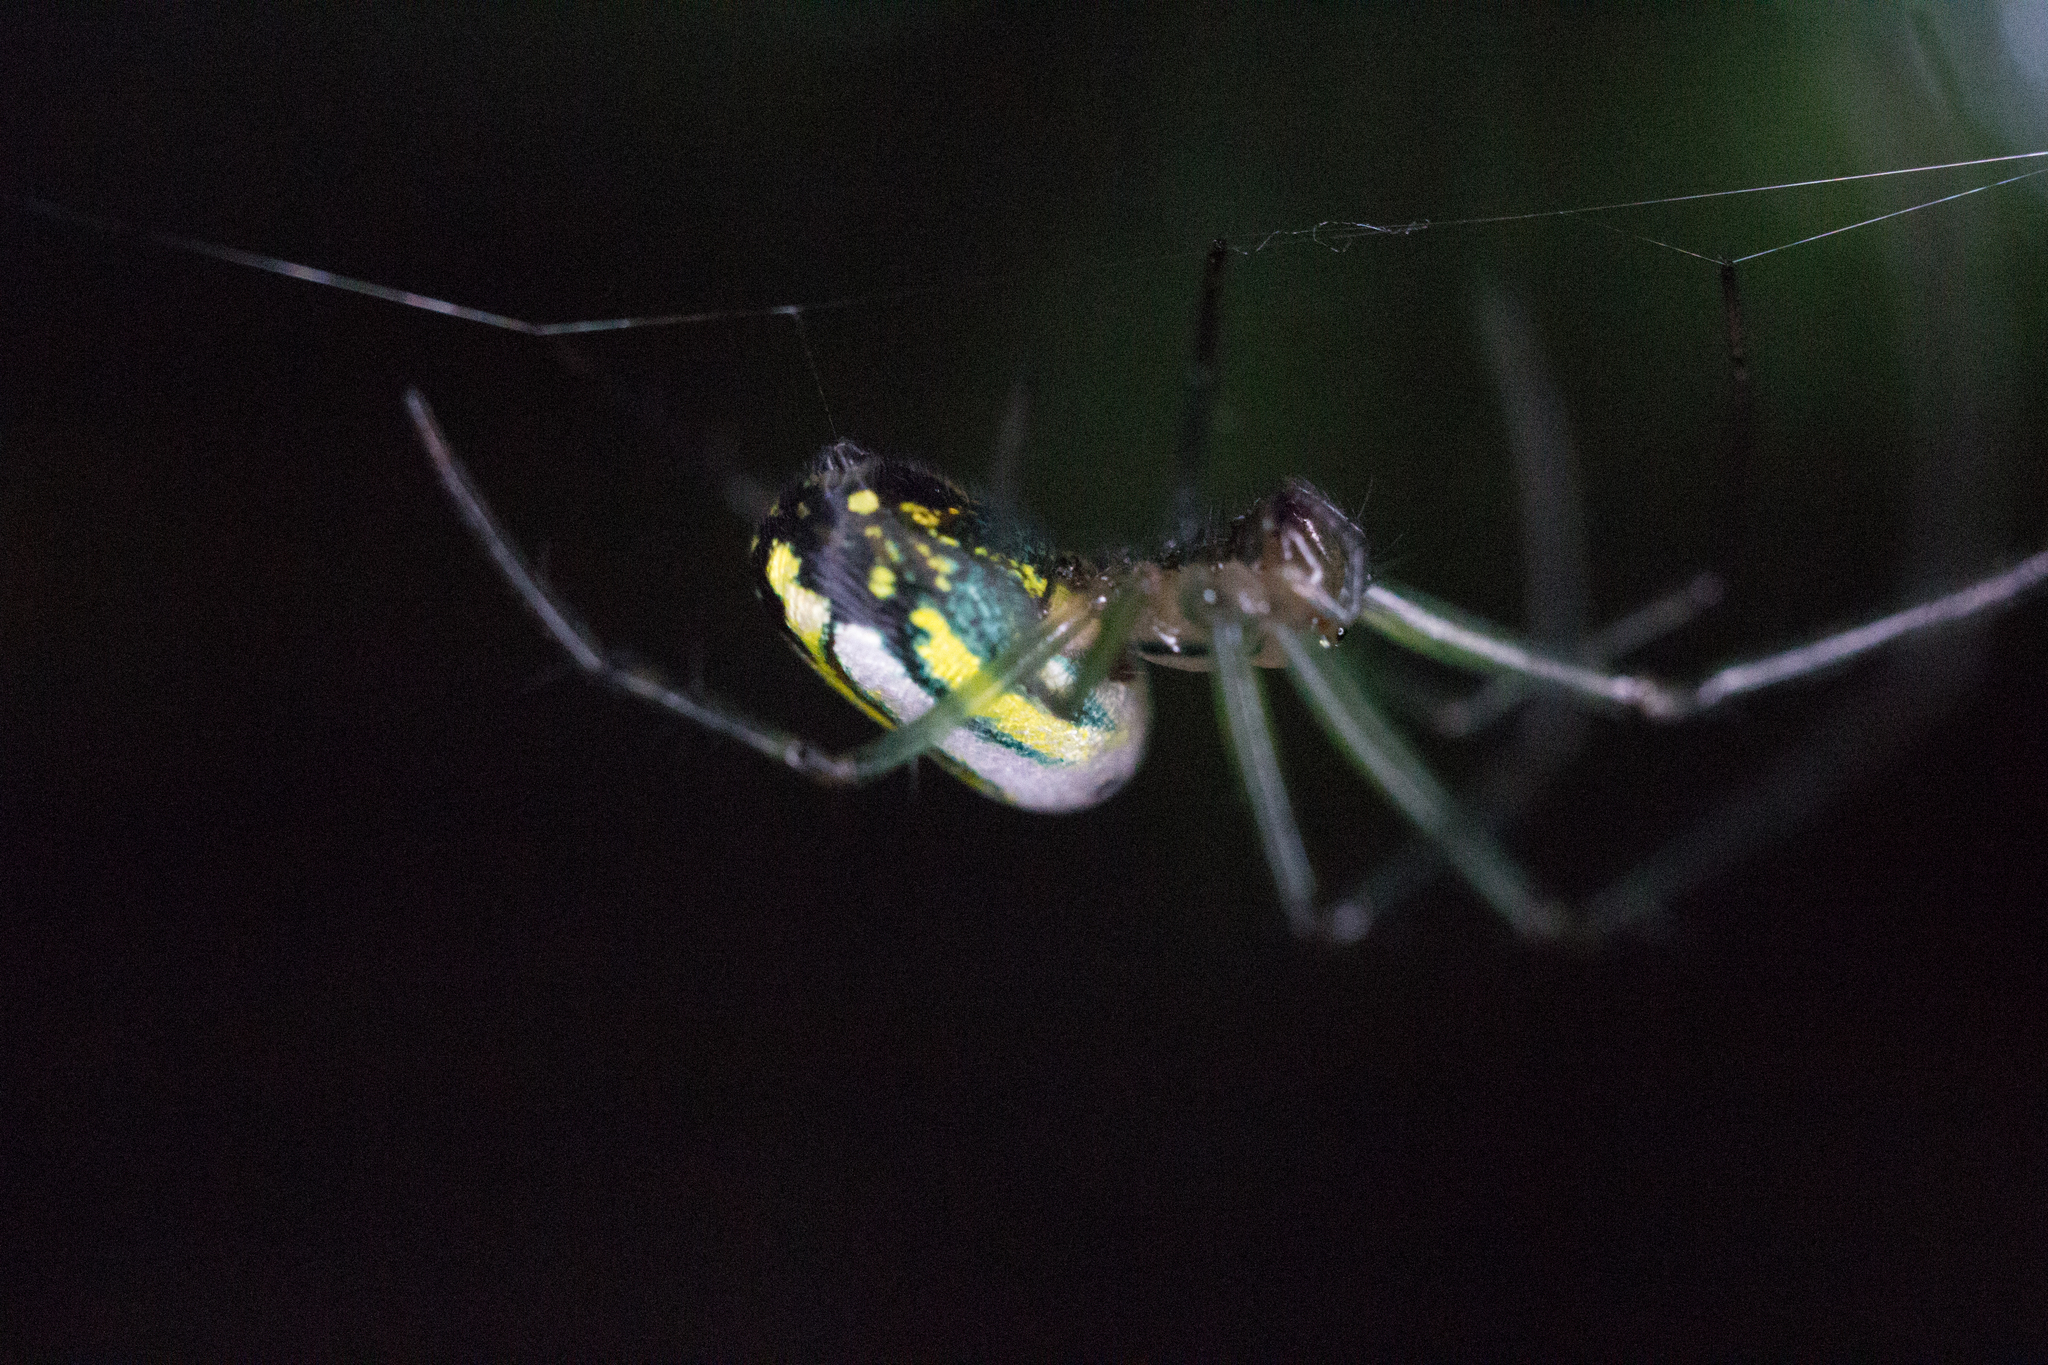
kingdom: Animalia
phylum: Arthropoda
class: Arachnida
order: Araneae
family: Tetragnathidae
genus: Leucauge
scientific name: Leucauge venusta
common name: Longjawed orb weavers
